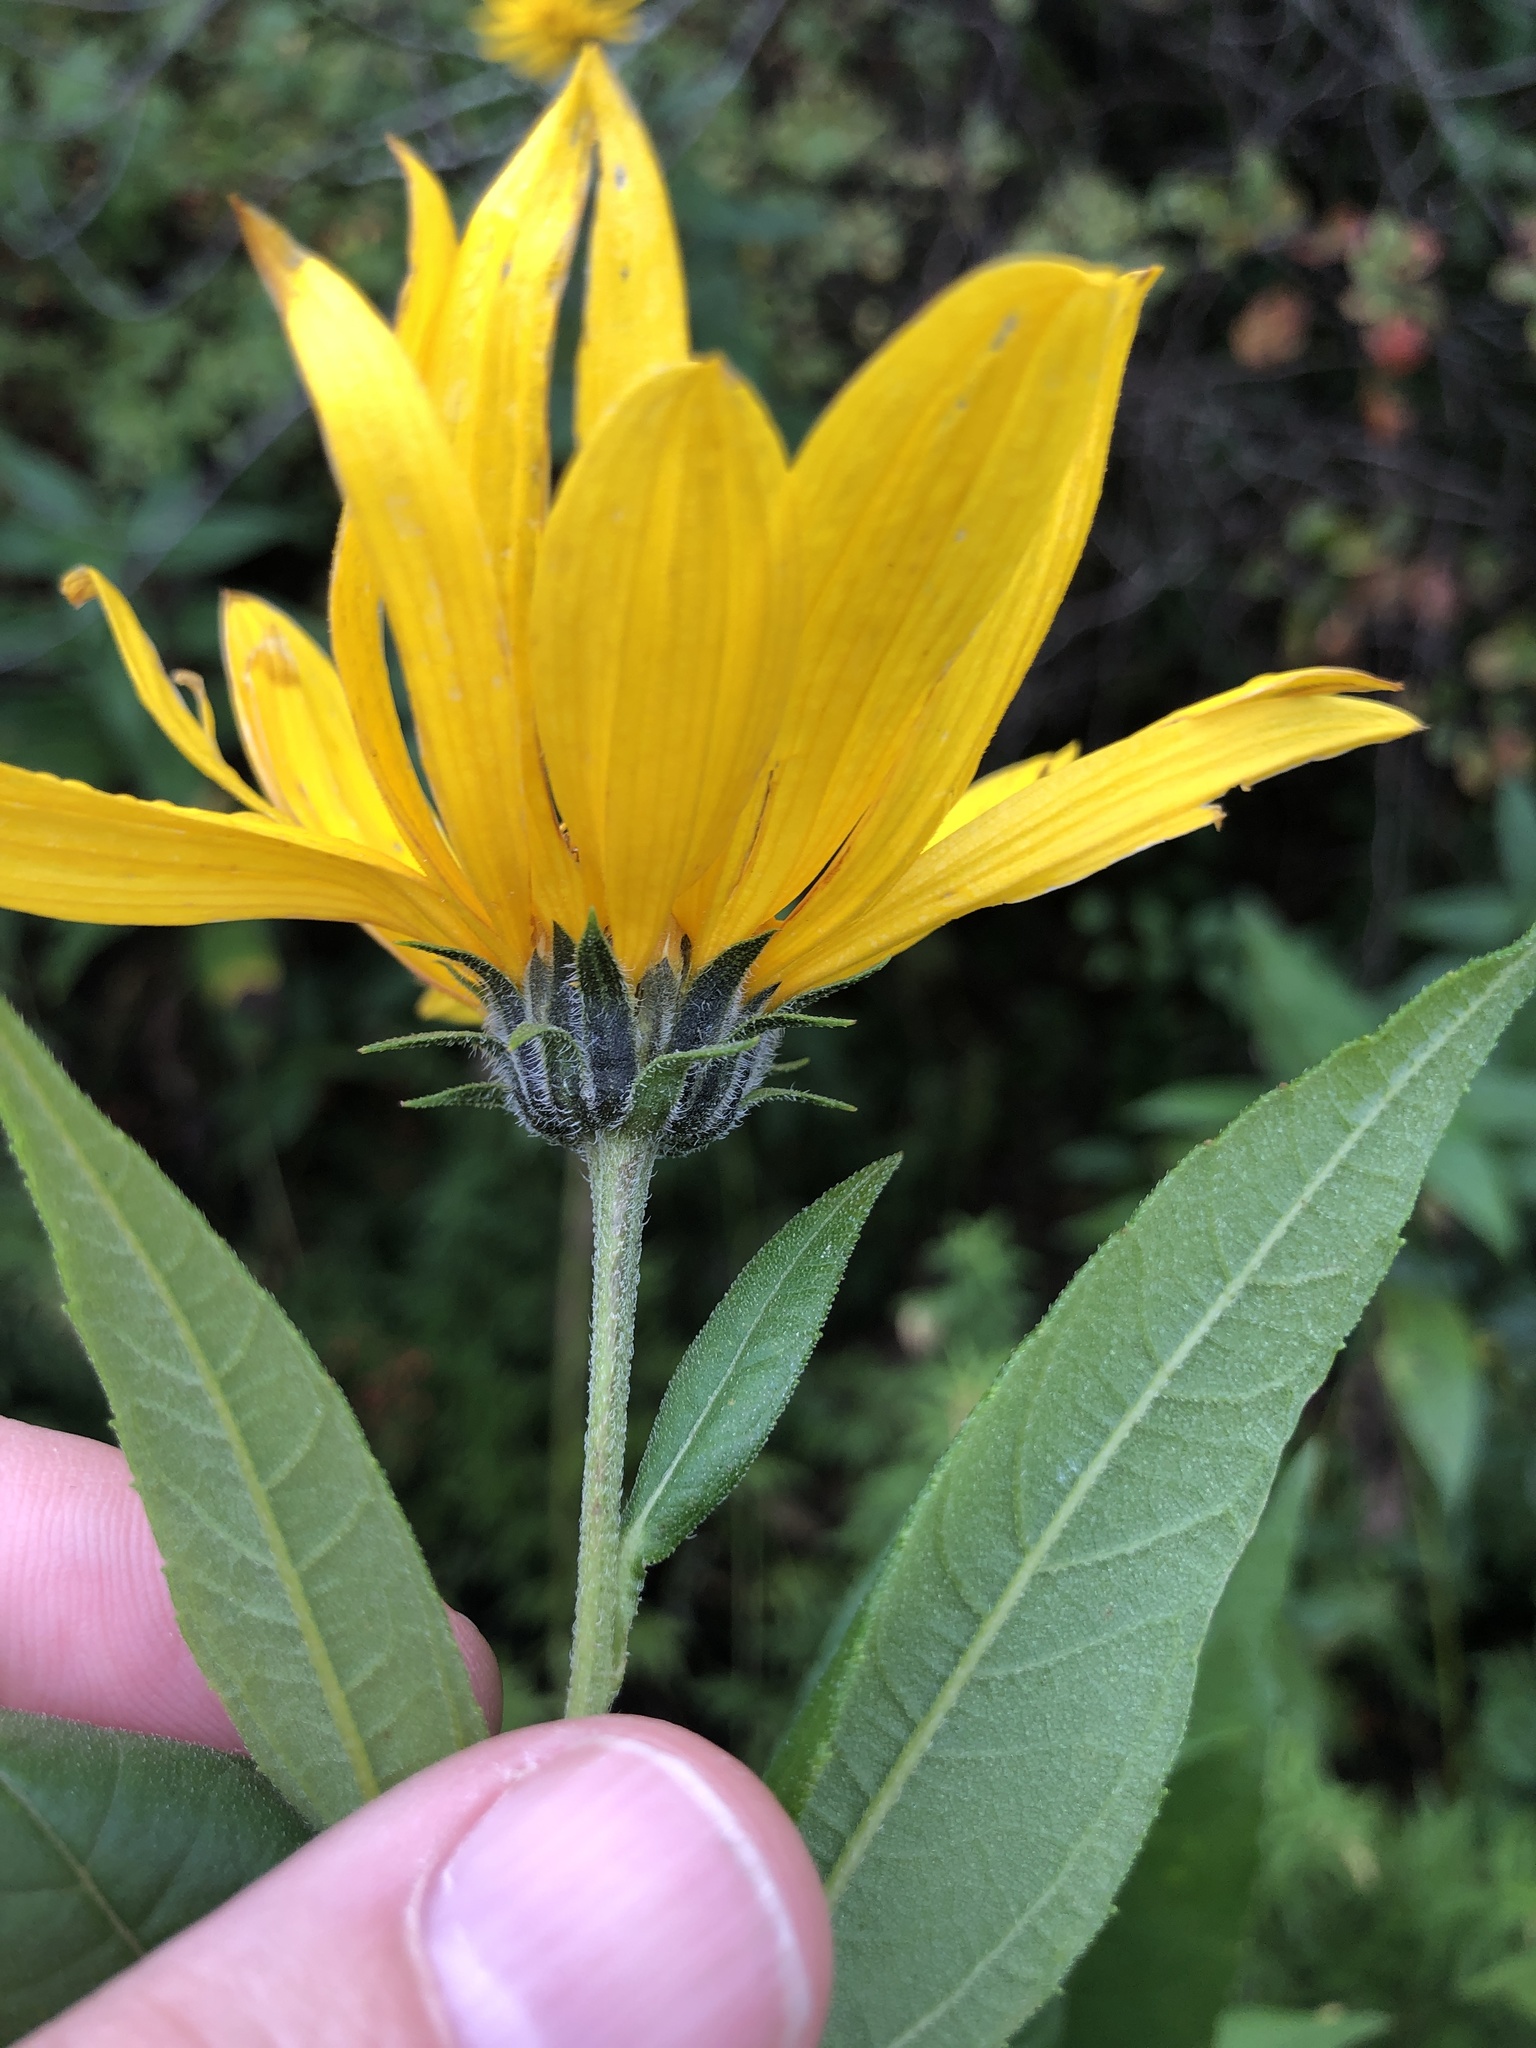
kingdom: Plantae
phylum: Tracheophyta
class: Magnoliopsida
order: Asterales
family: Asteraceae
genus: Helianthus
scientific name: Helianthus tuberosus
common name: Jerusalem artichoke
